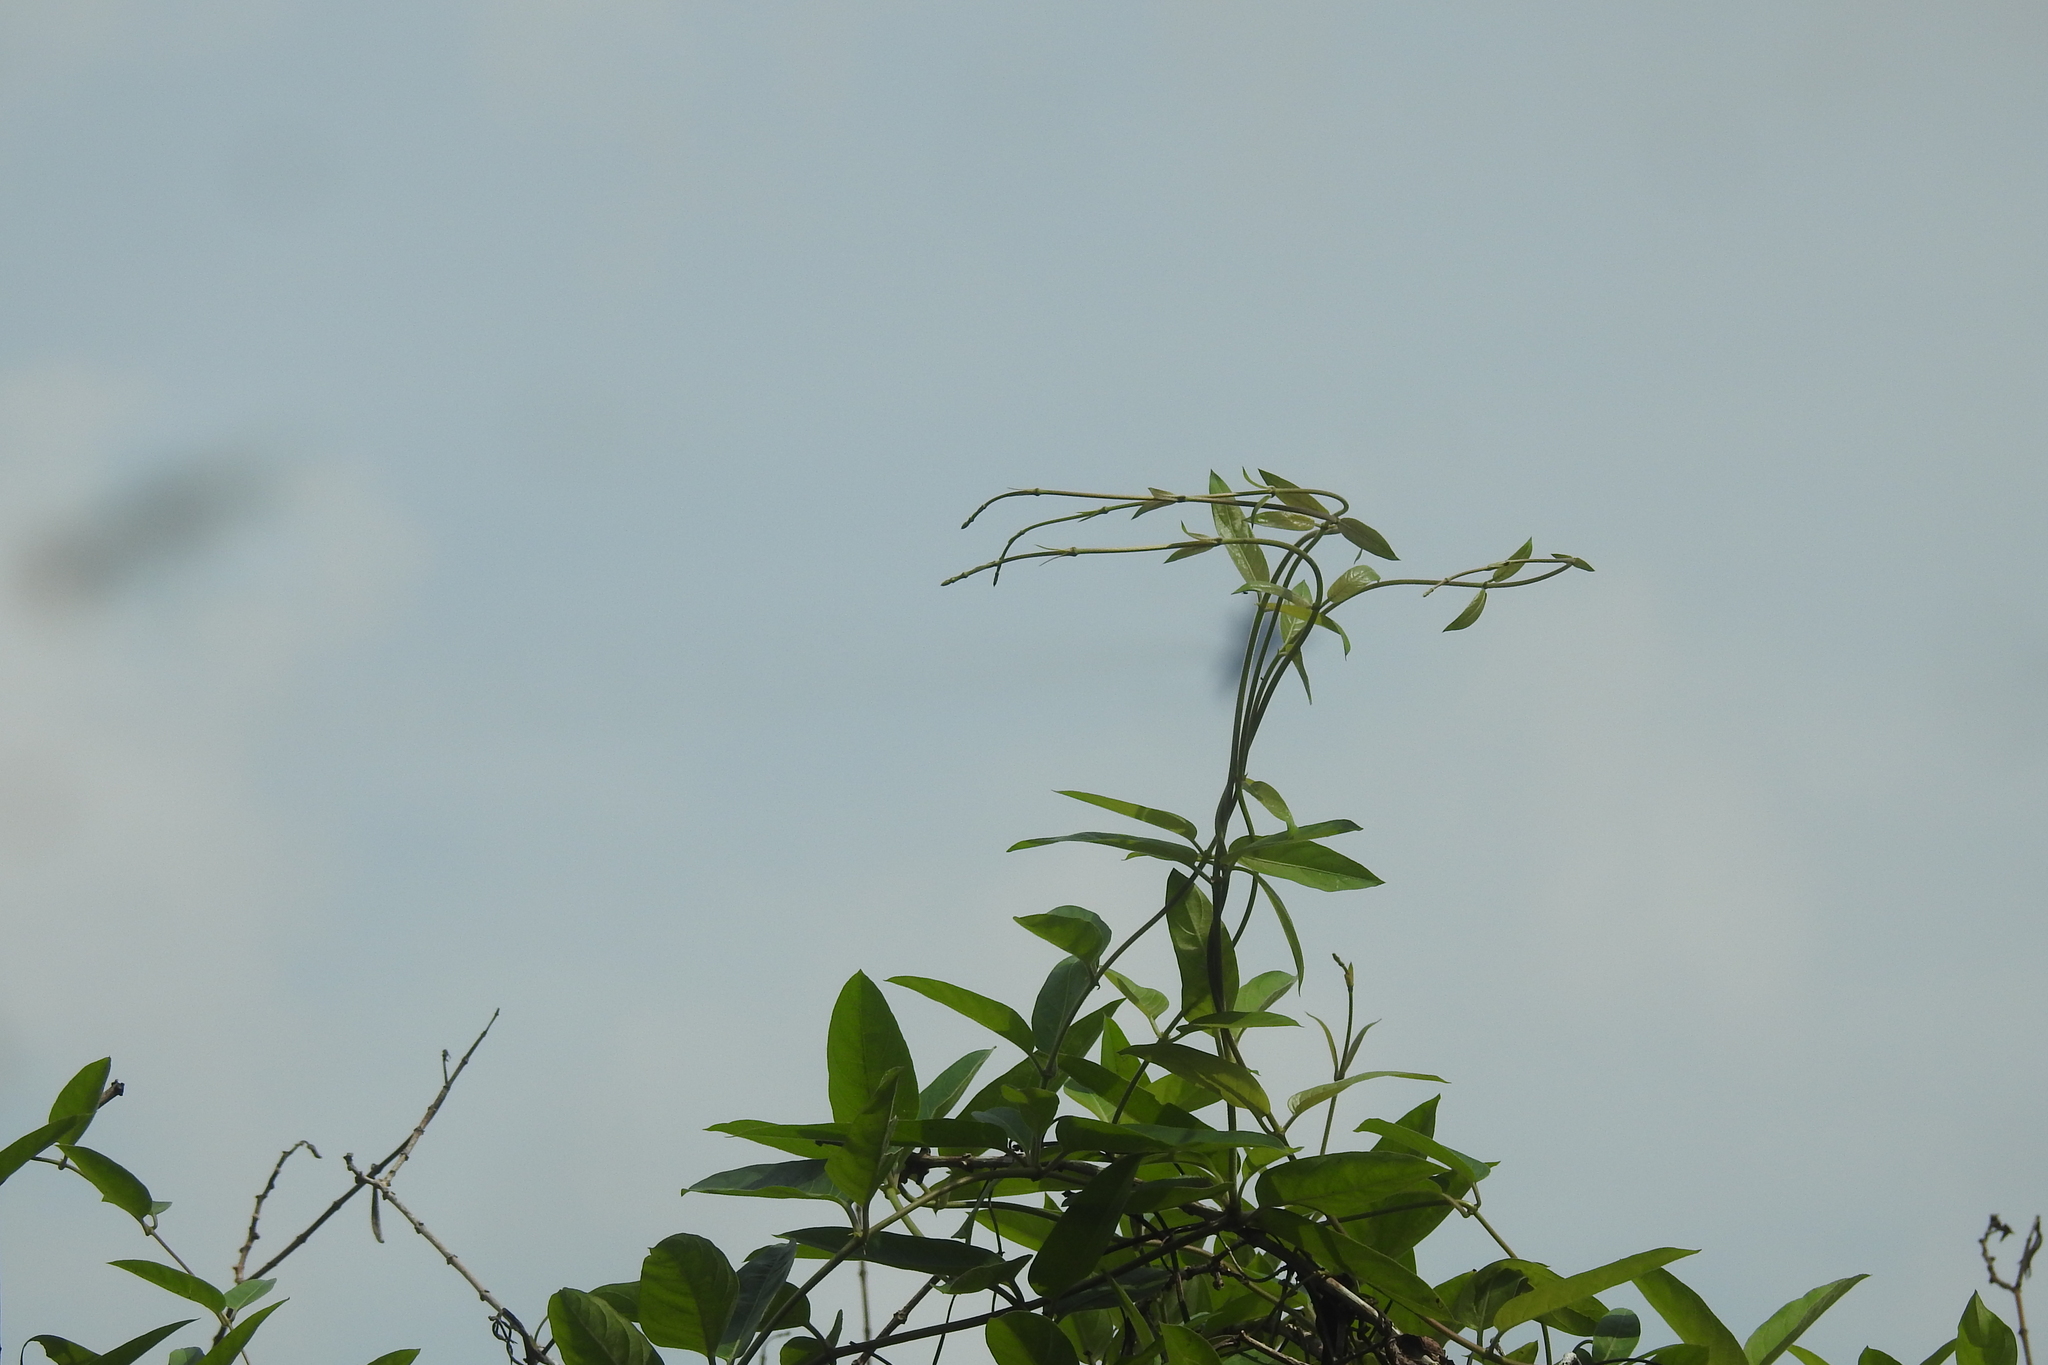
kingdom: Plantae
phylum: Tracheophyta
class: Magnoliopsida
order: Gentianales
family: Rubiaceae
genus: Paederia
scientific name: Paederia foetida
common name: Stinkvine
